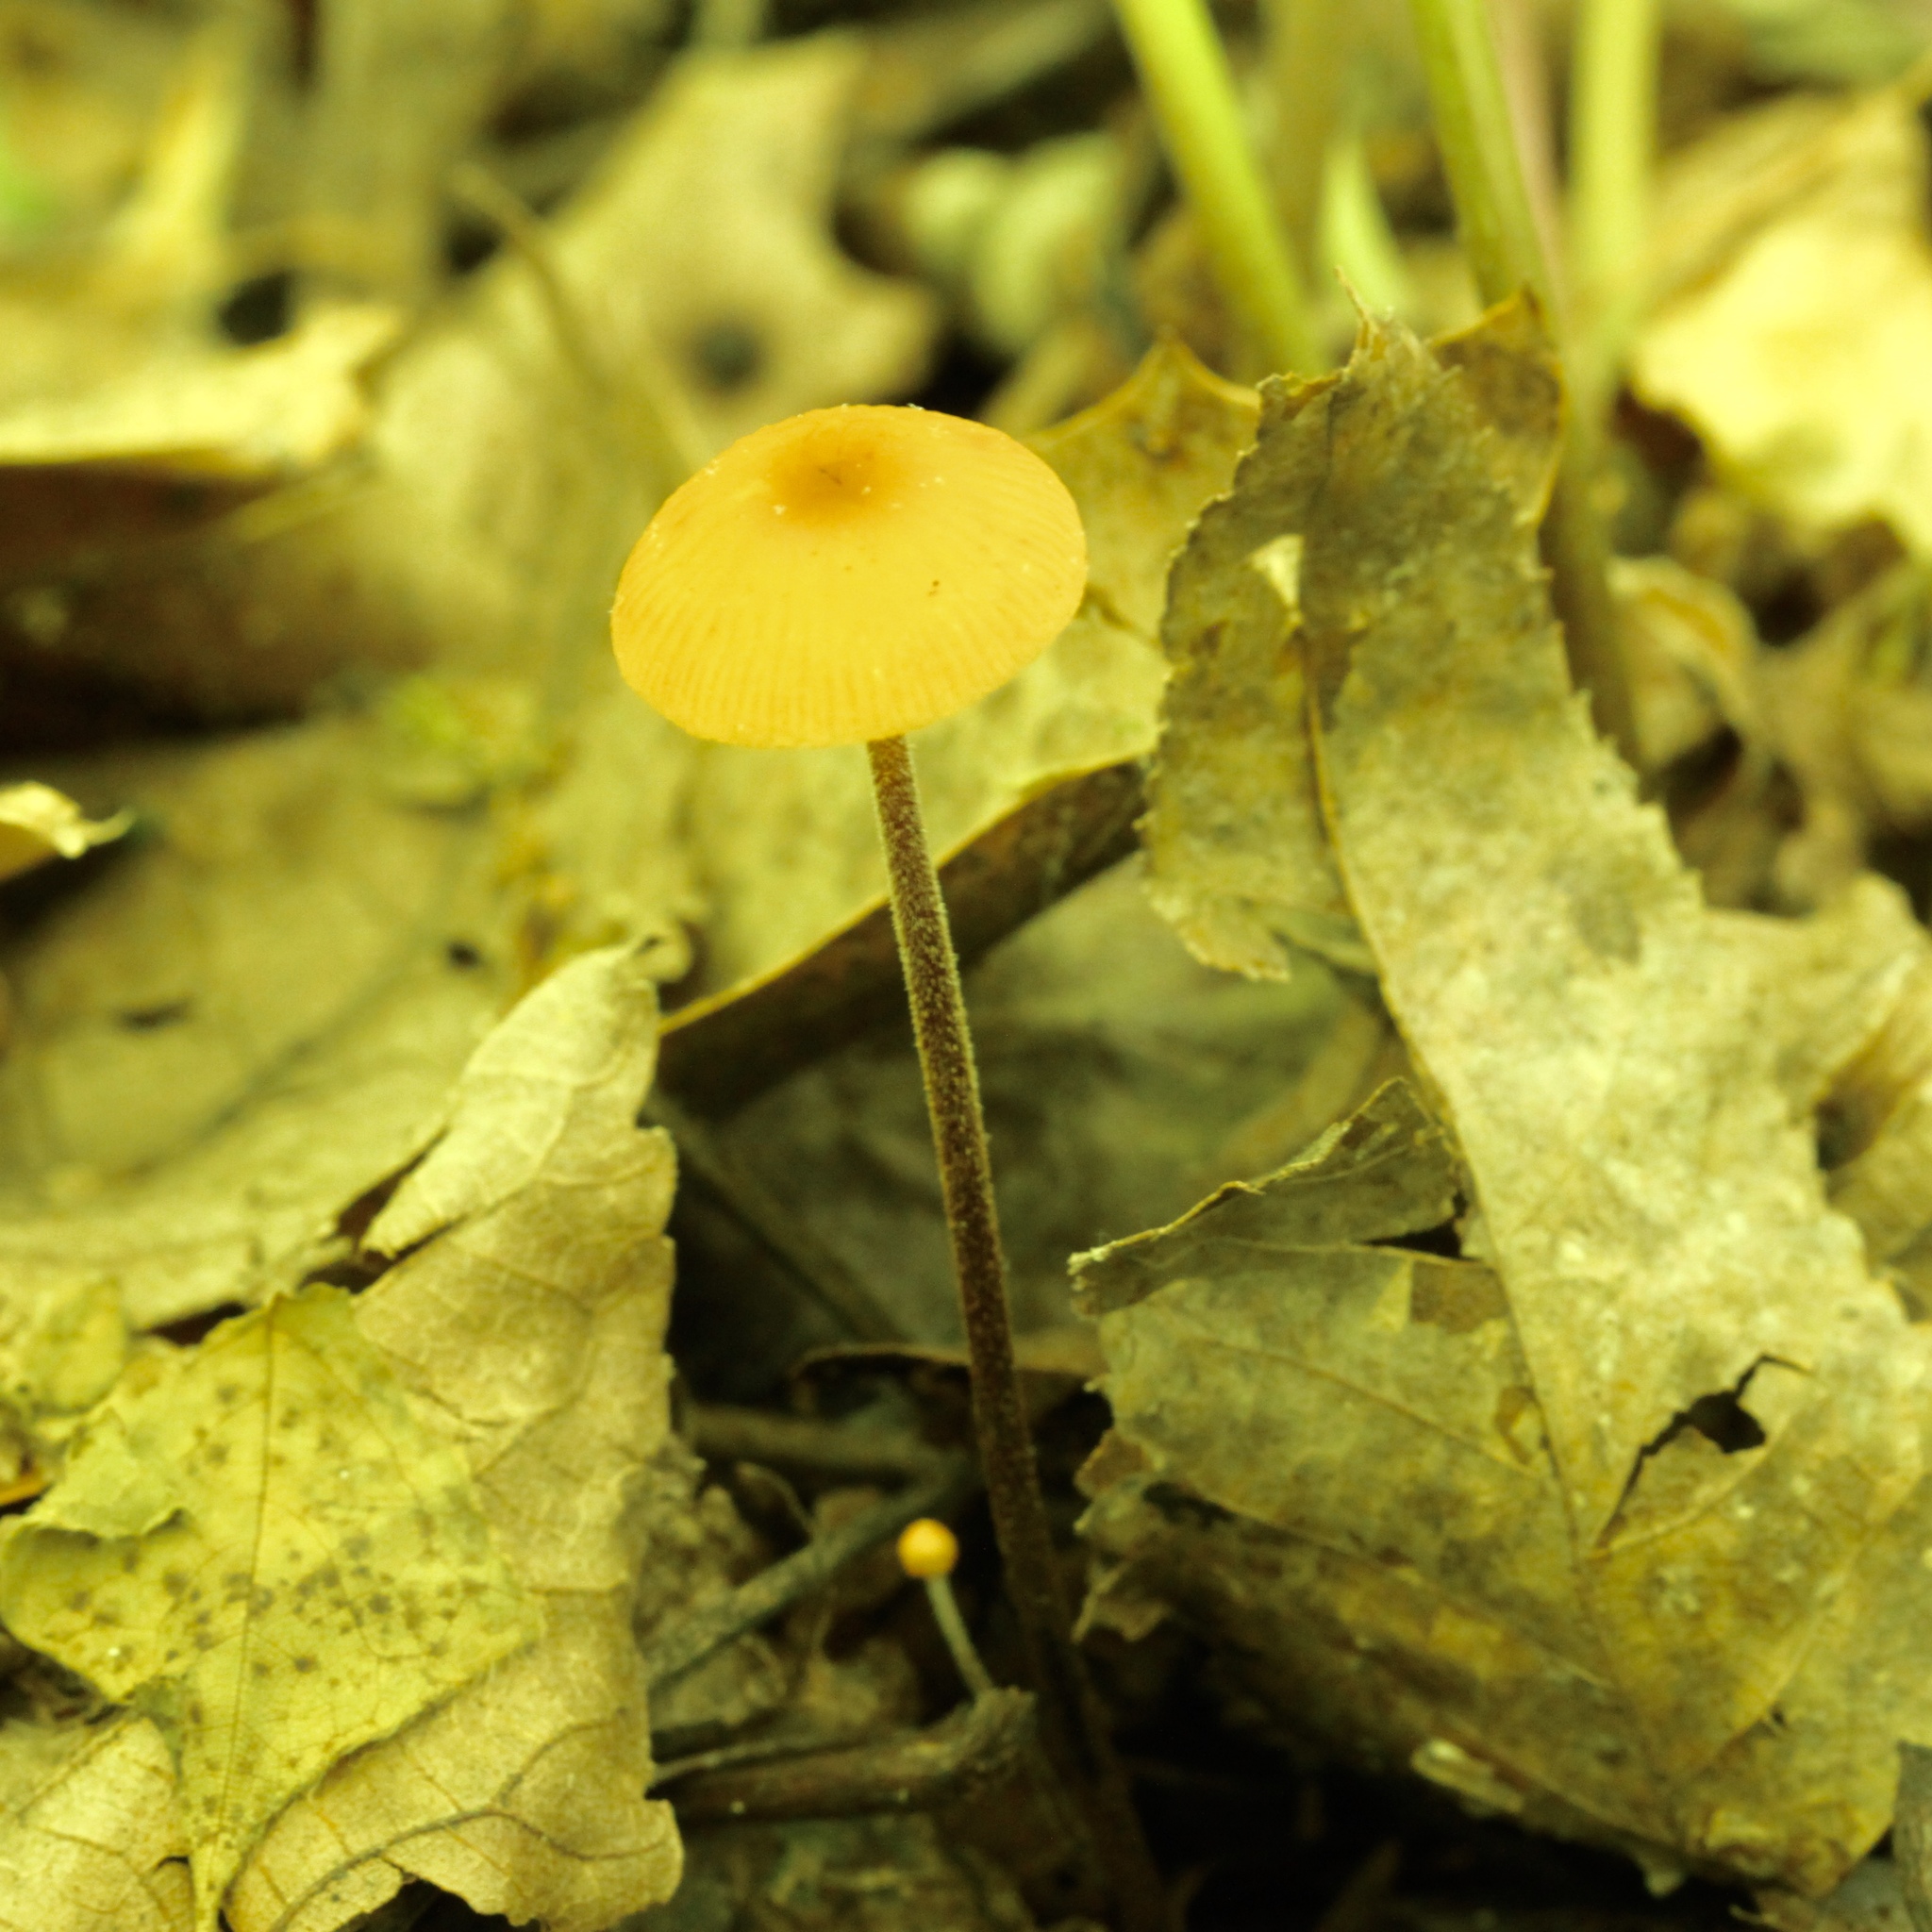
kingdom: Fungi
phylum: Basidiomycota
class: Agaricomycetes
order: Agaricales
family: Physalacriaceae
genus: Rhizomarasmius
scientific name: Rhizomarasmius pyrrhocephalus
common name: Hairy long stem marasmius
